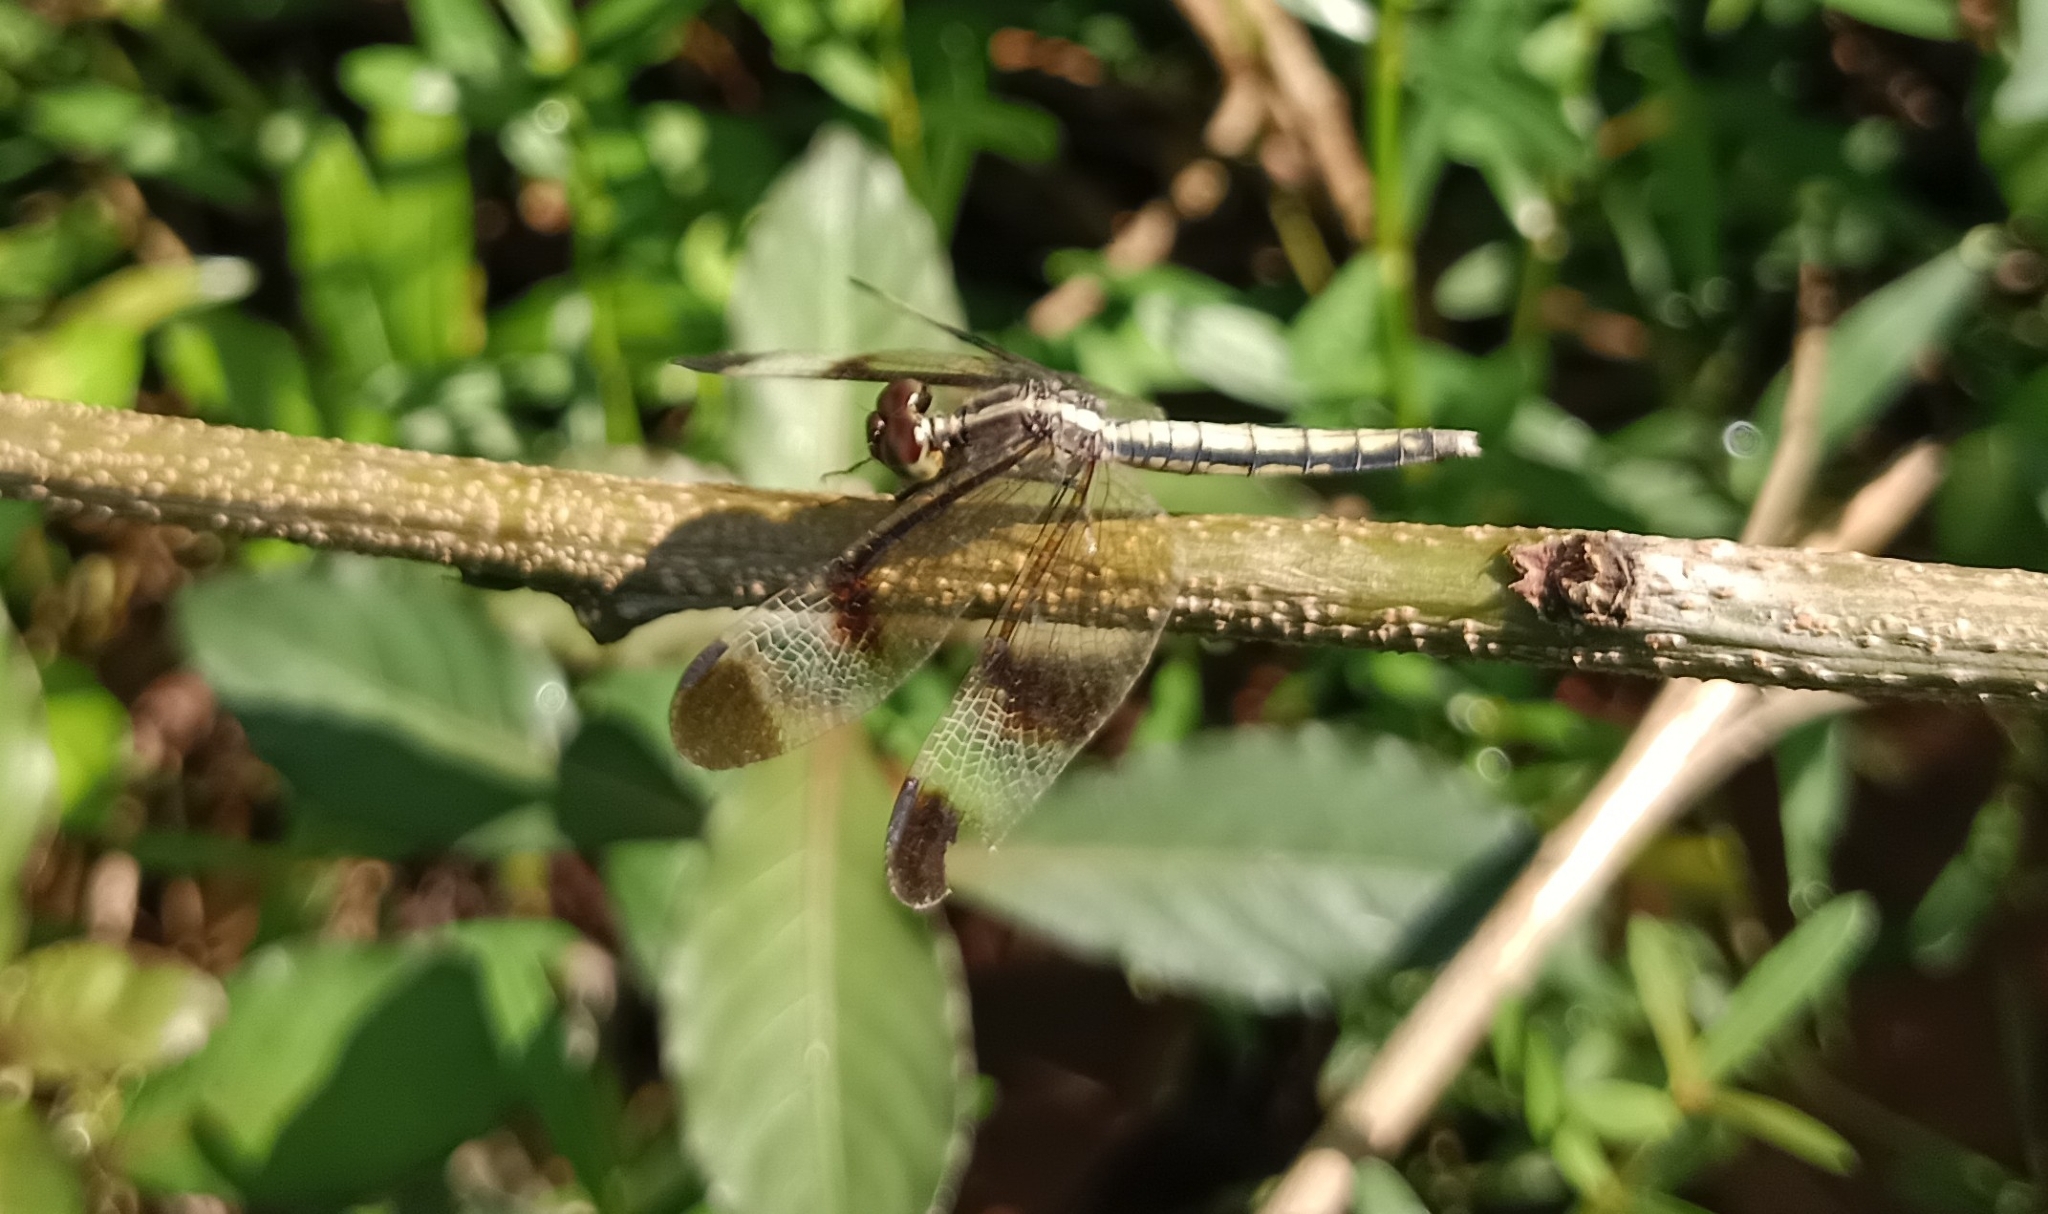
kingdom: Animalia
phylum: Arthropoda
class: Insecta
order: Odonata
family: Libellulidae
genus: Neurothemis
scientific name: Neurothemis tullia
